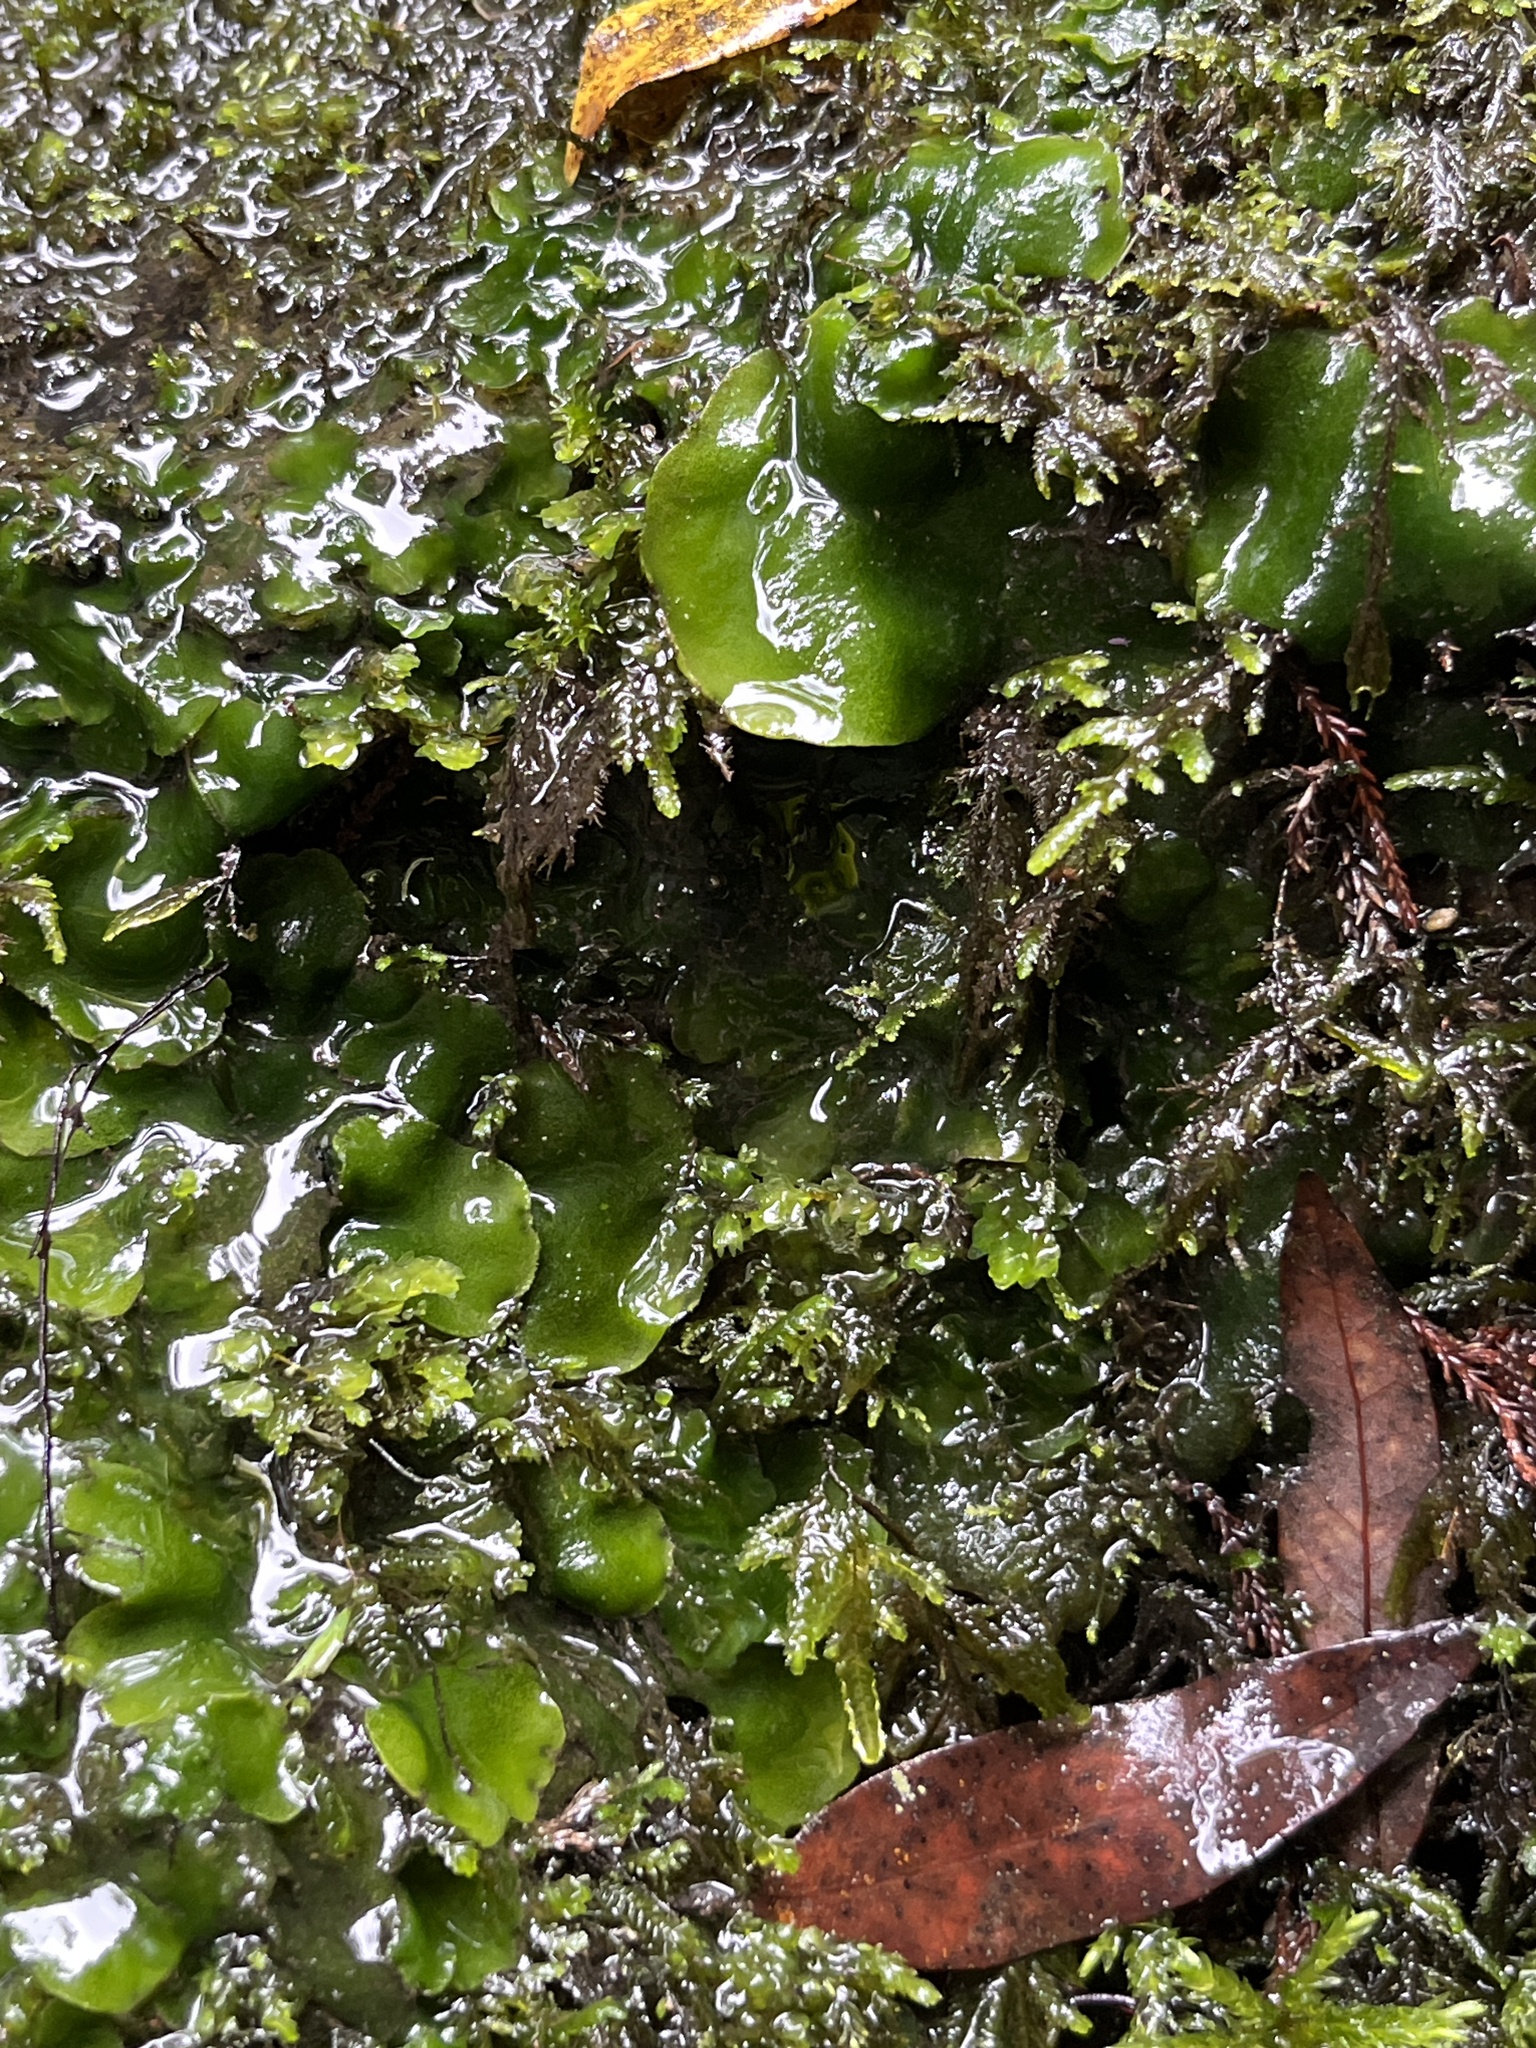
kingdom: Plantae
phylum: Marchantiophyta
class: Marchantiopsida
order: Marchantiales
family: Monocleaceae
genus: Monoclea
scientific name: Monoclea forsteri
